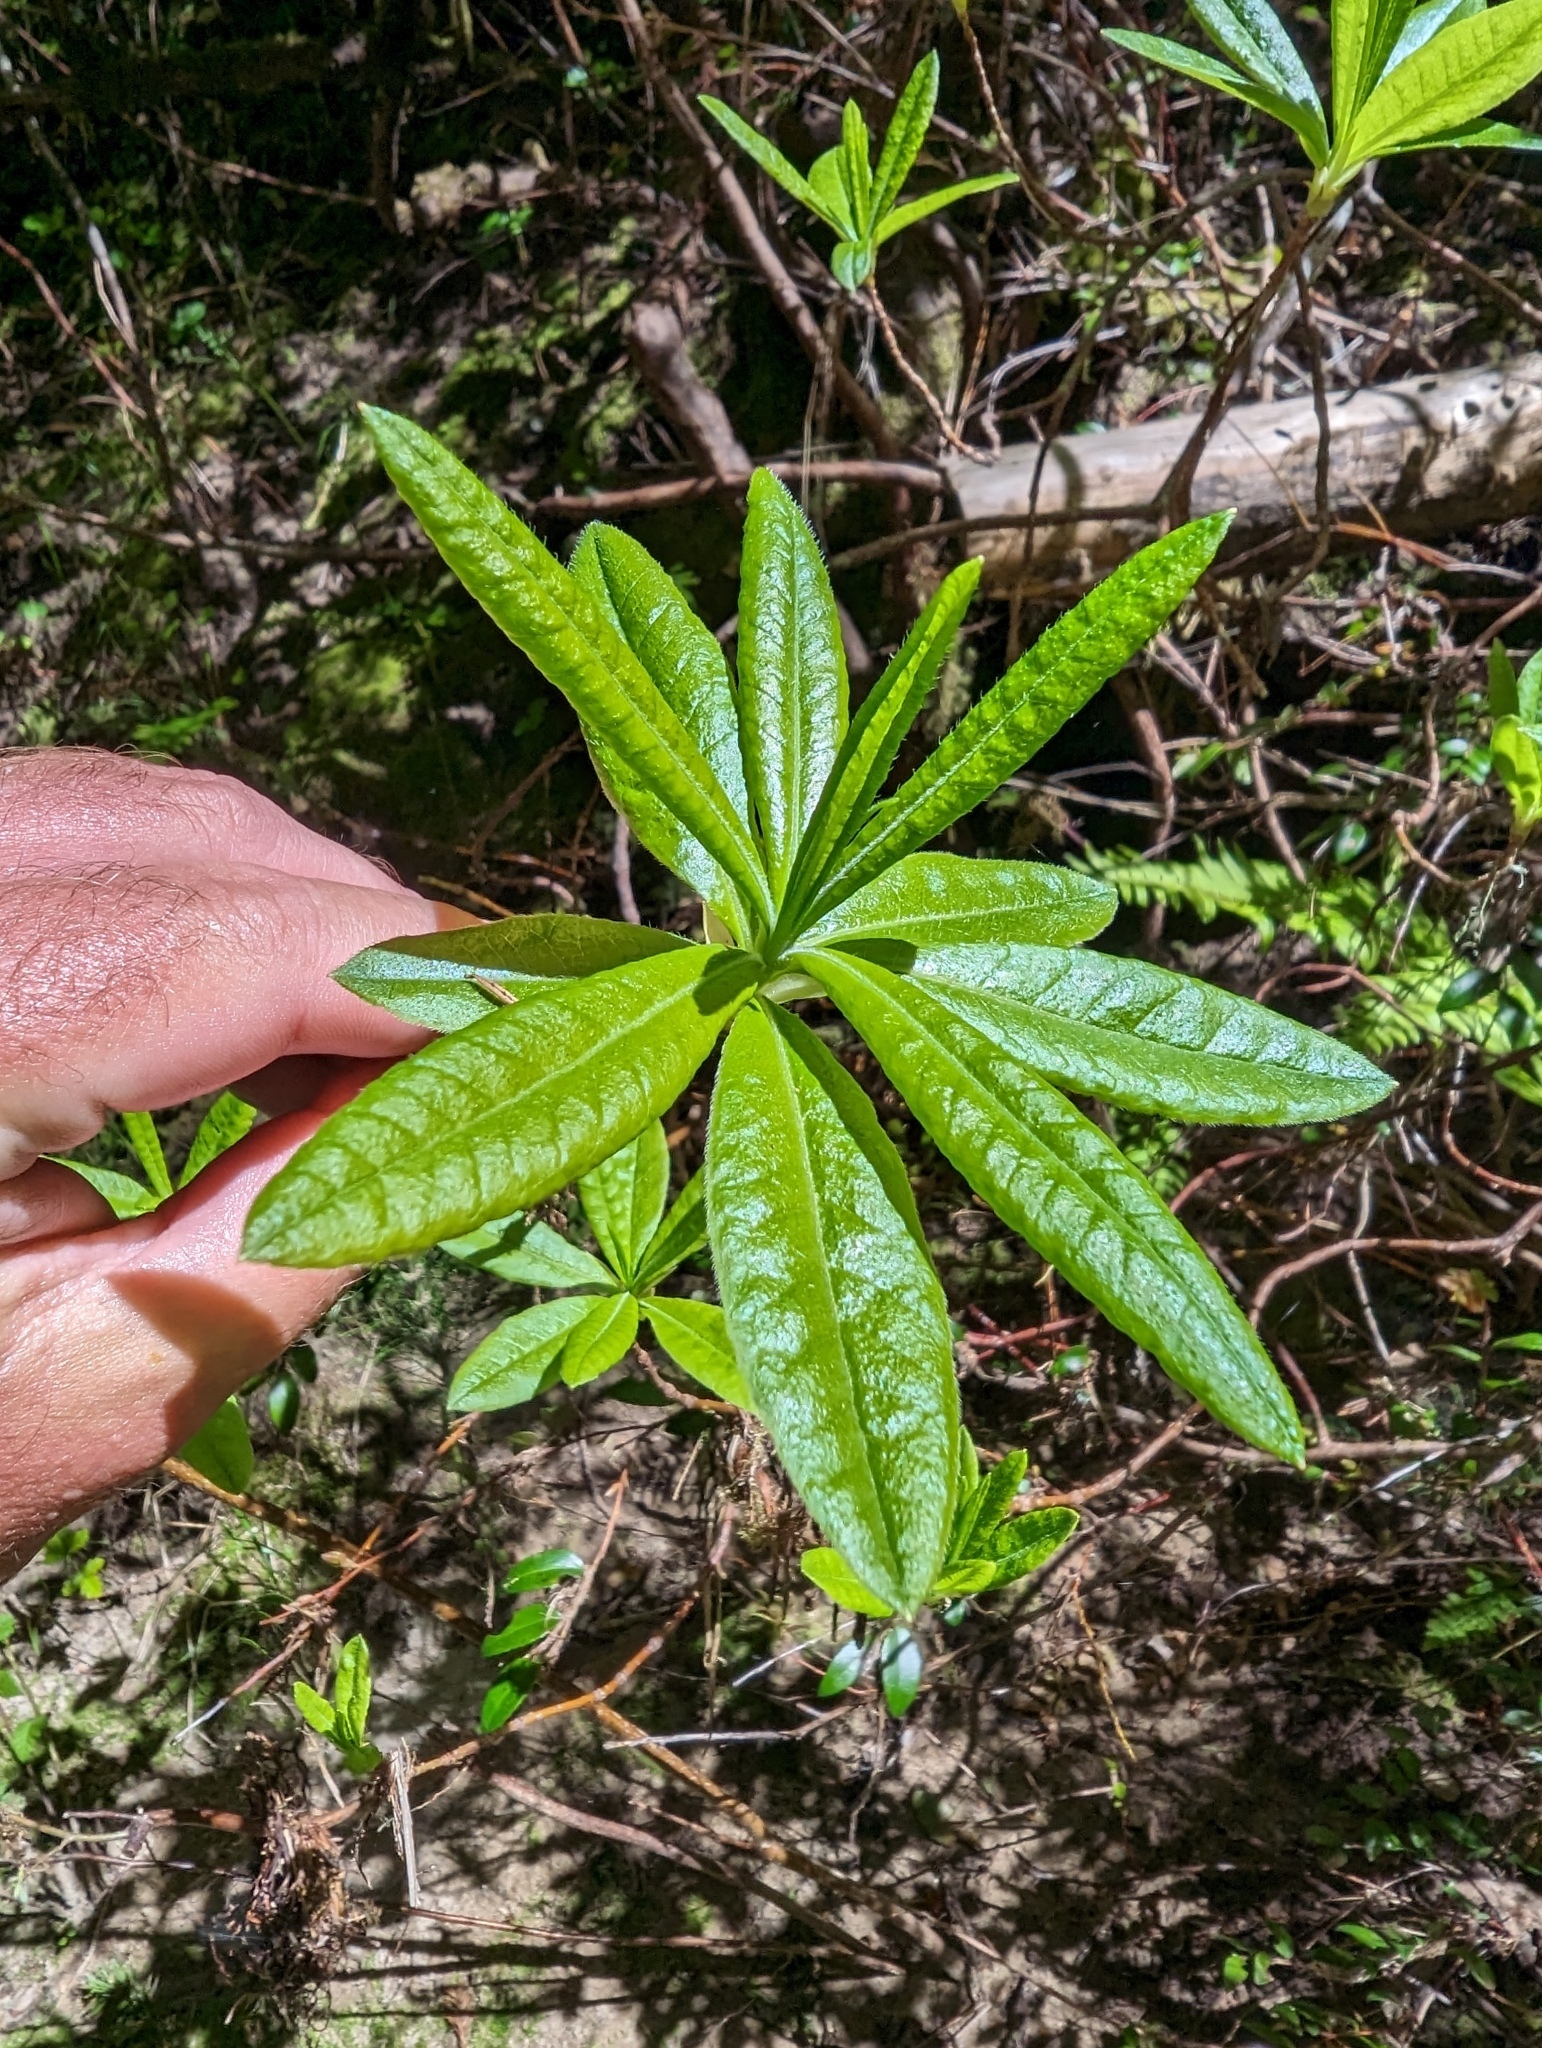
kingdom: Plantae
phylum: Tracheophyta
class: Magnoliopsida
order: Ericales
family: Ericaceae
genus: Rhododendron
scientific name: Rhododendron occidentale
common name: Western azalea
